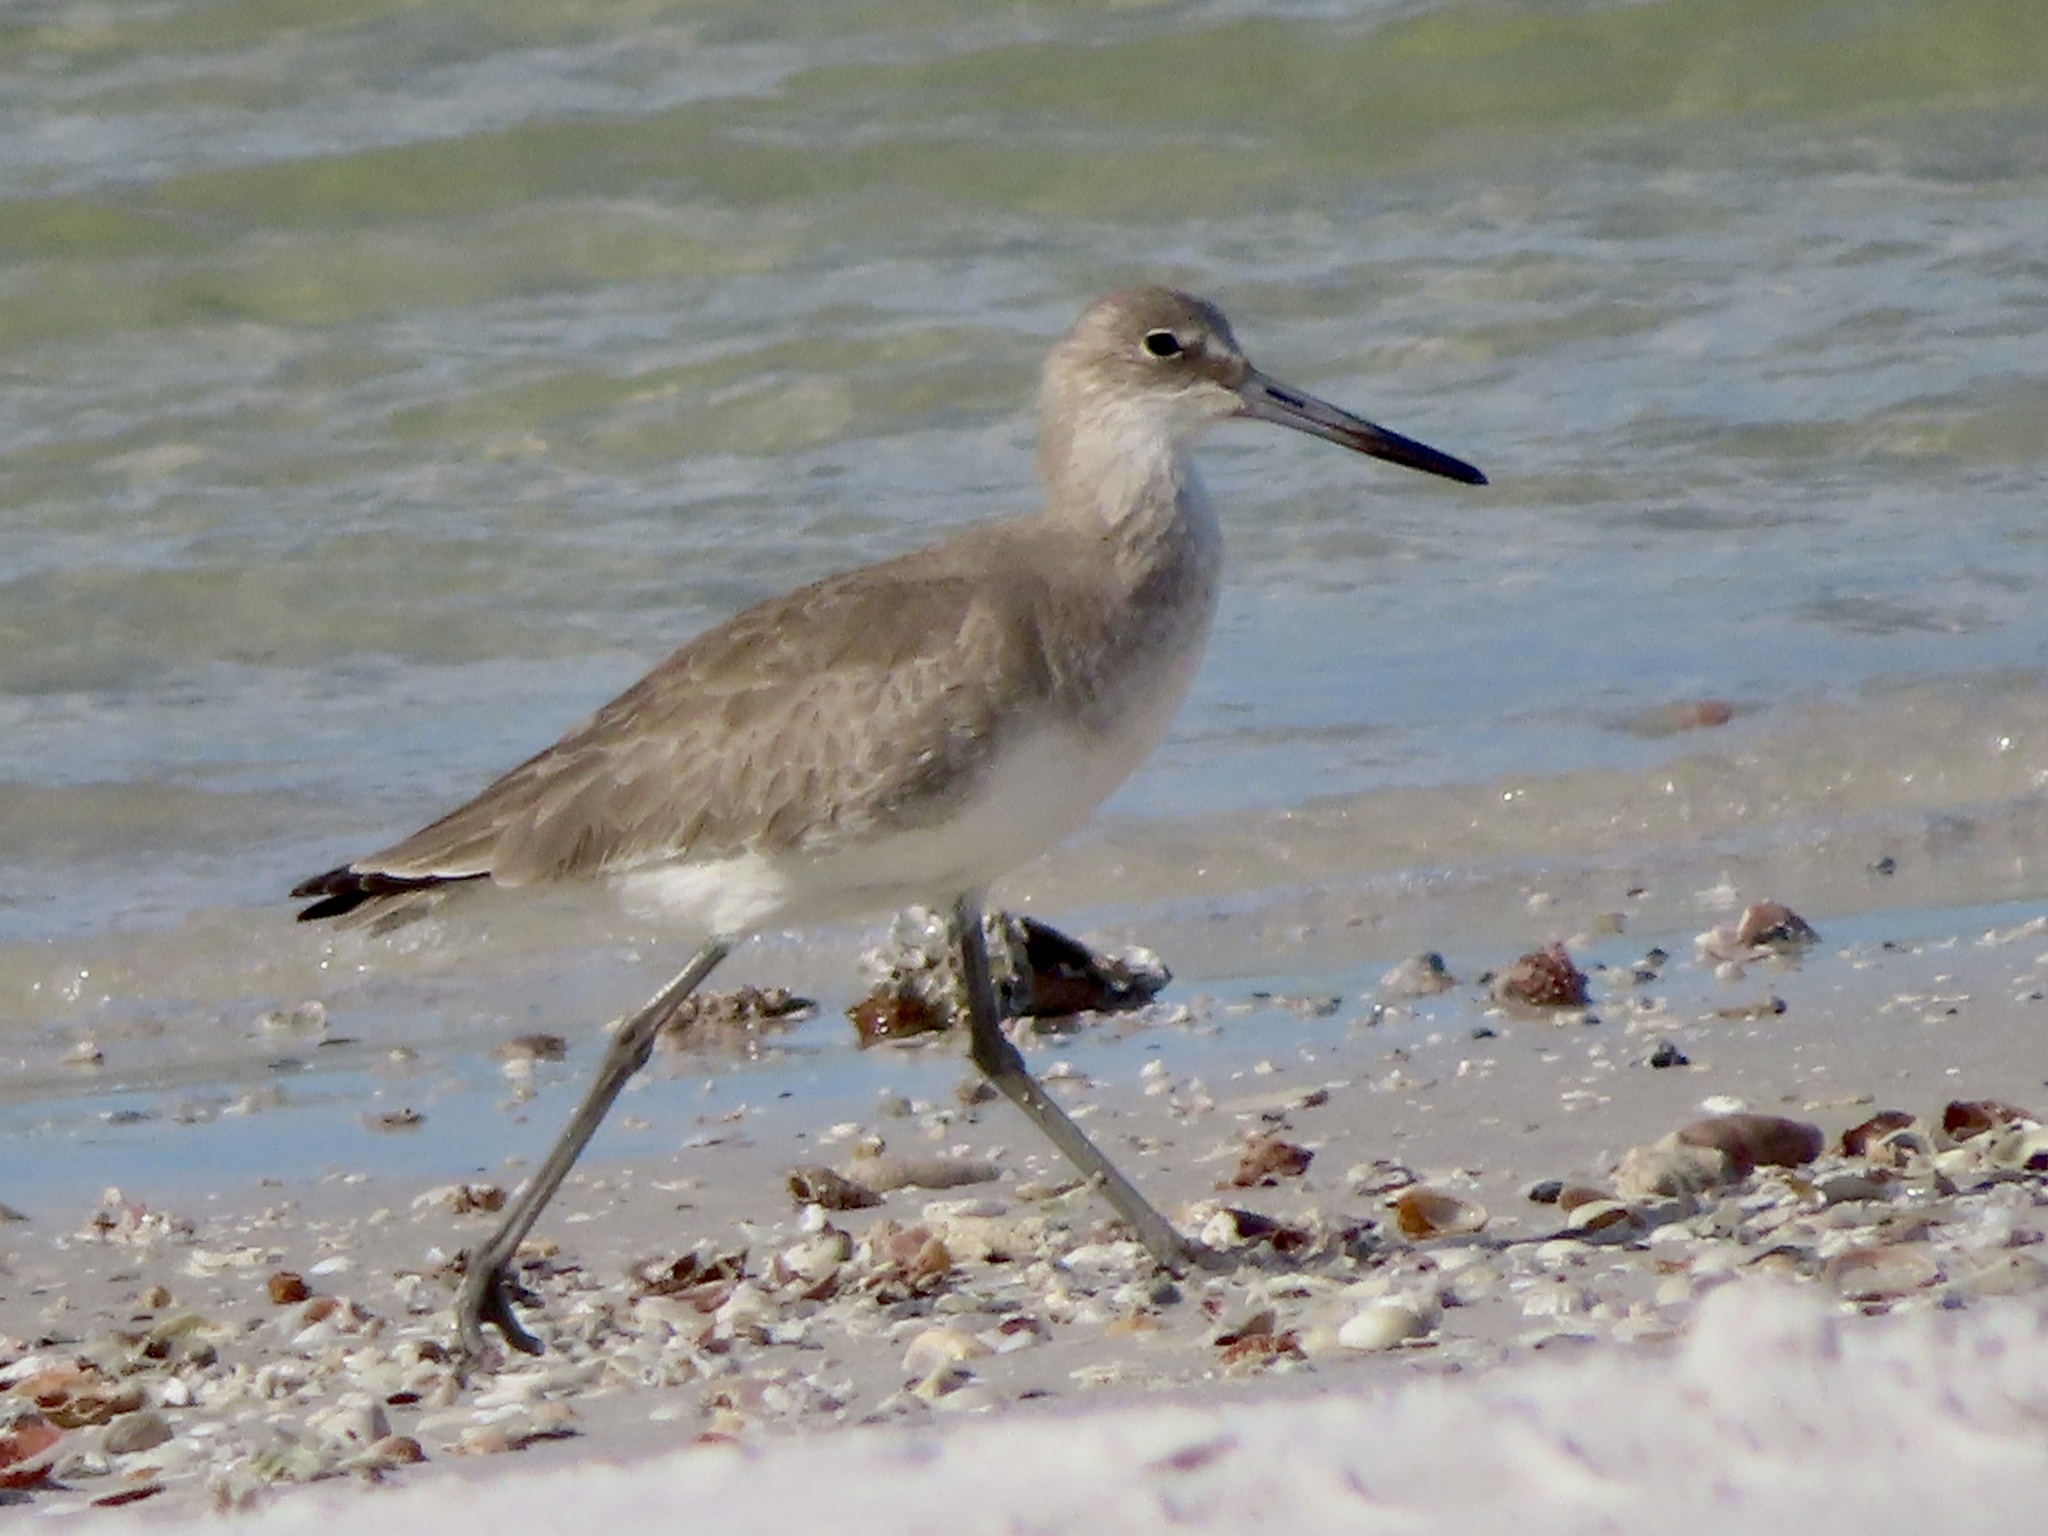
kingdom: Animalia
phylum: Chordata
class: Aves
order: Charadriiformes
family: Scolopacidae
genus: Tringa
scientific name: Tringa semipalmata
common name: Willet
